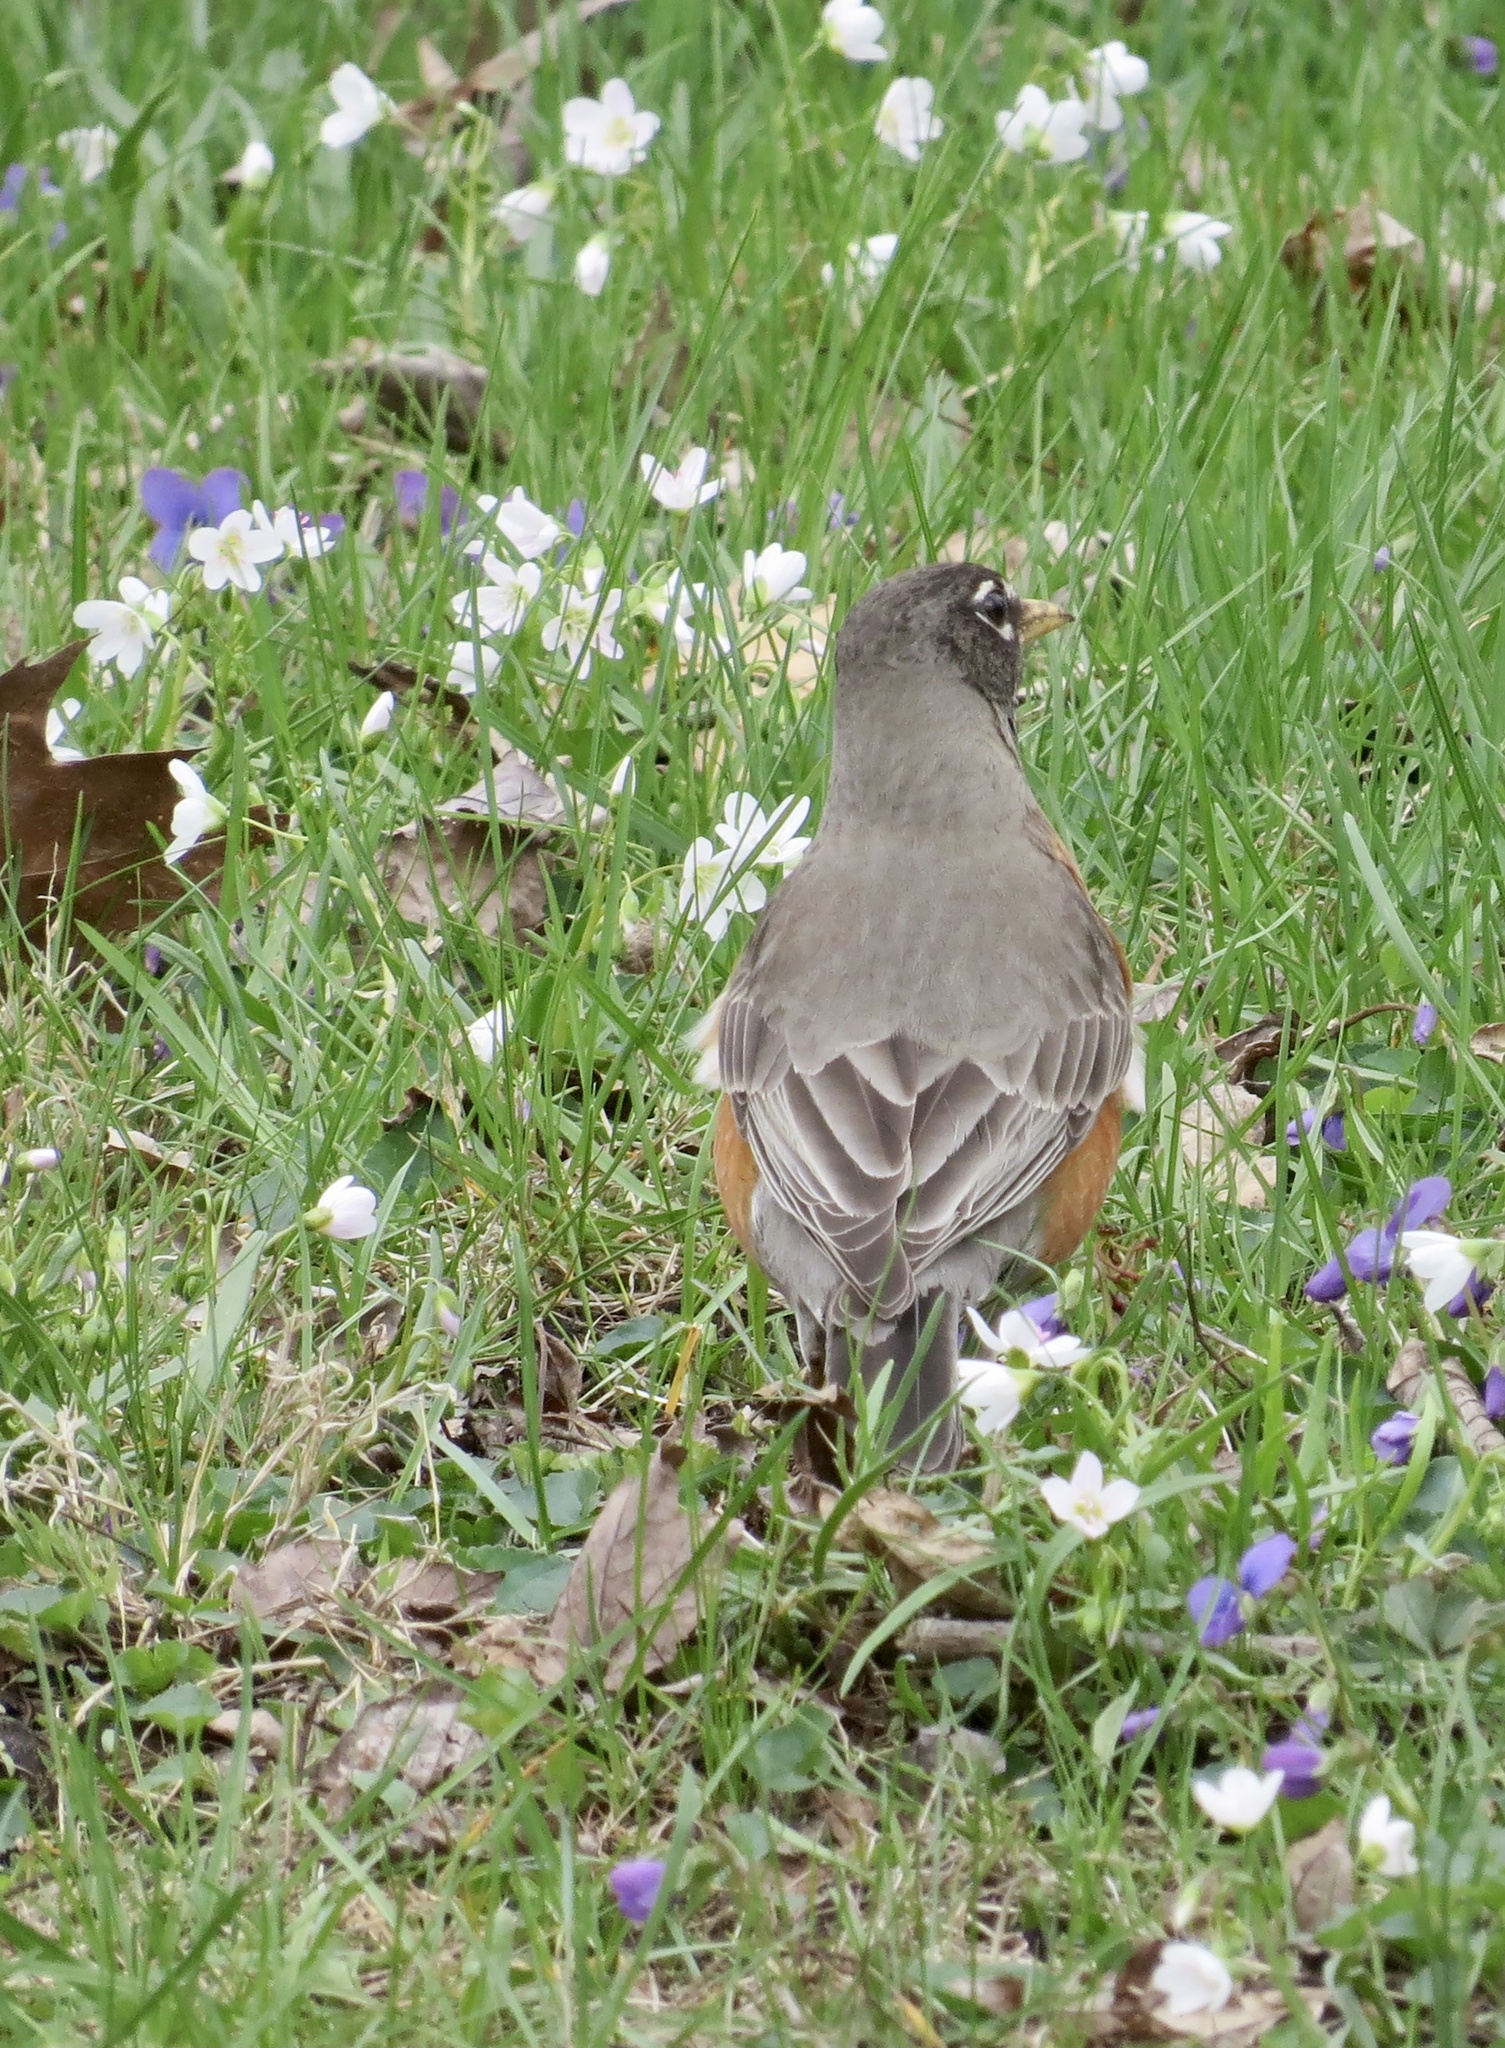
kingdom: Animalia
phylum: Chordata
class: Aves
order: Passeriformes
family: Turdidae
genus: Turdus
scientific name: Turdus migratorius
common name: American robin
